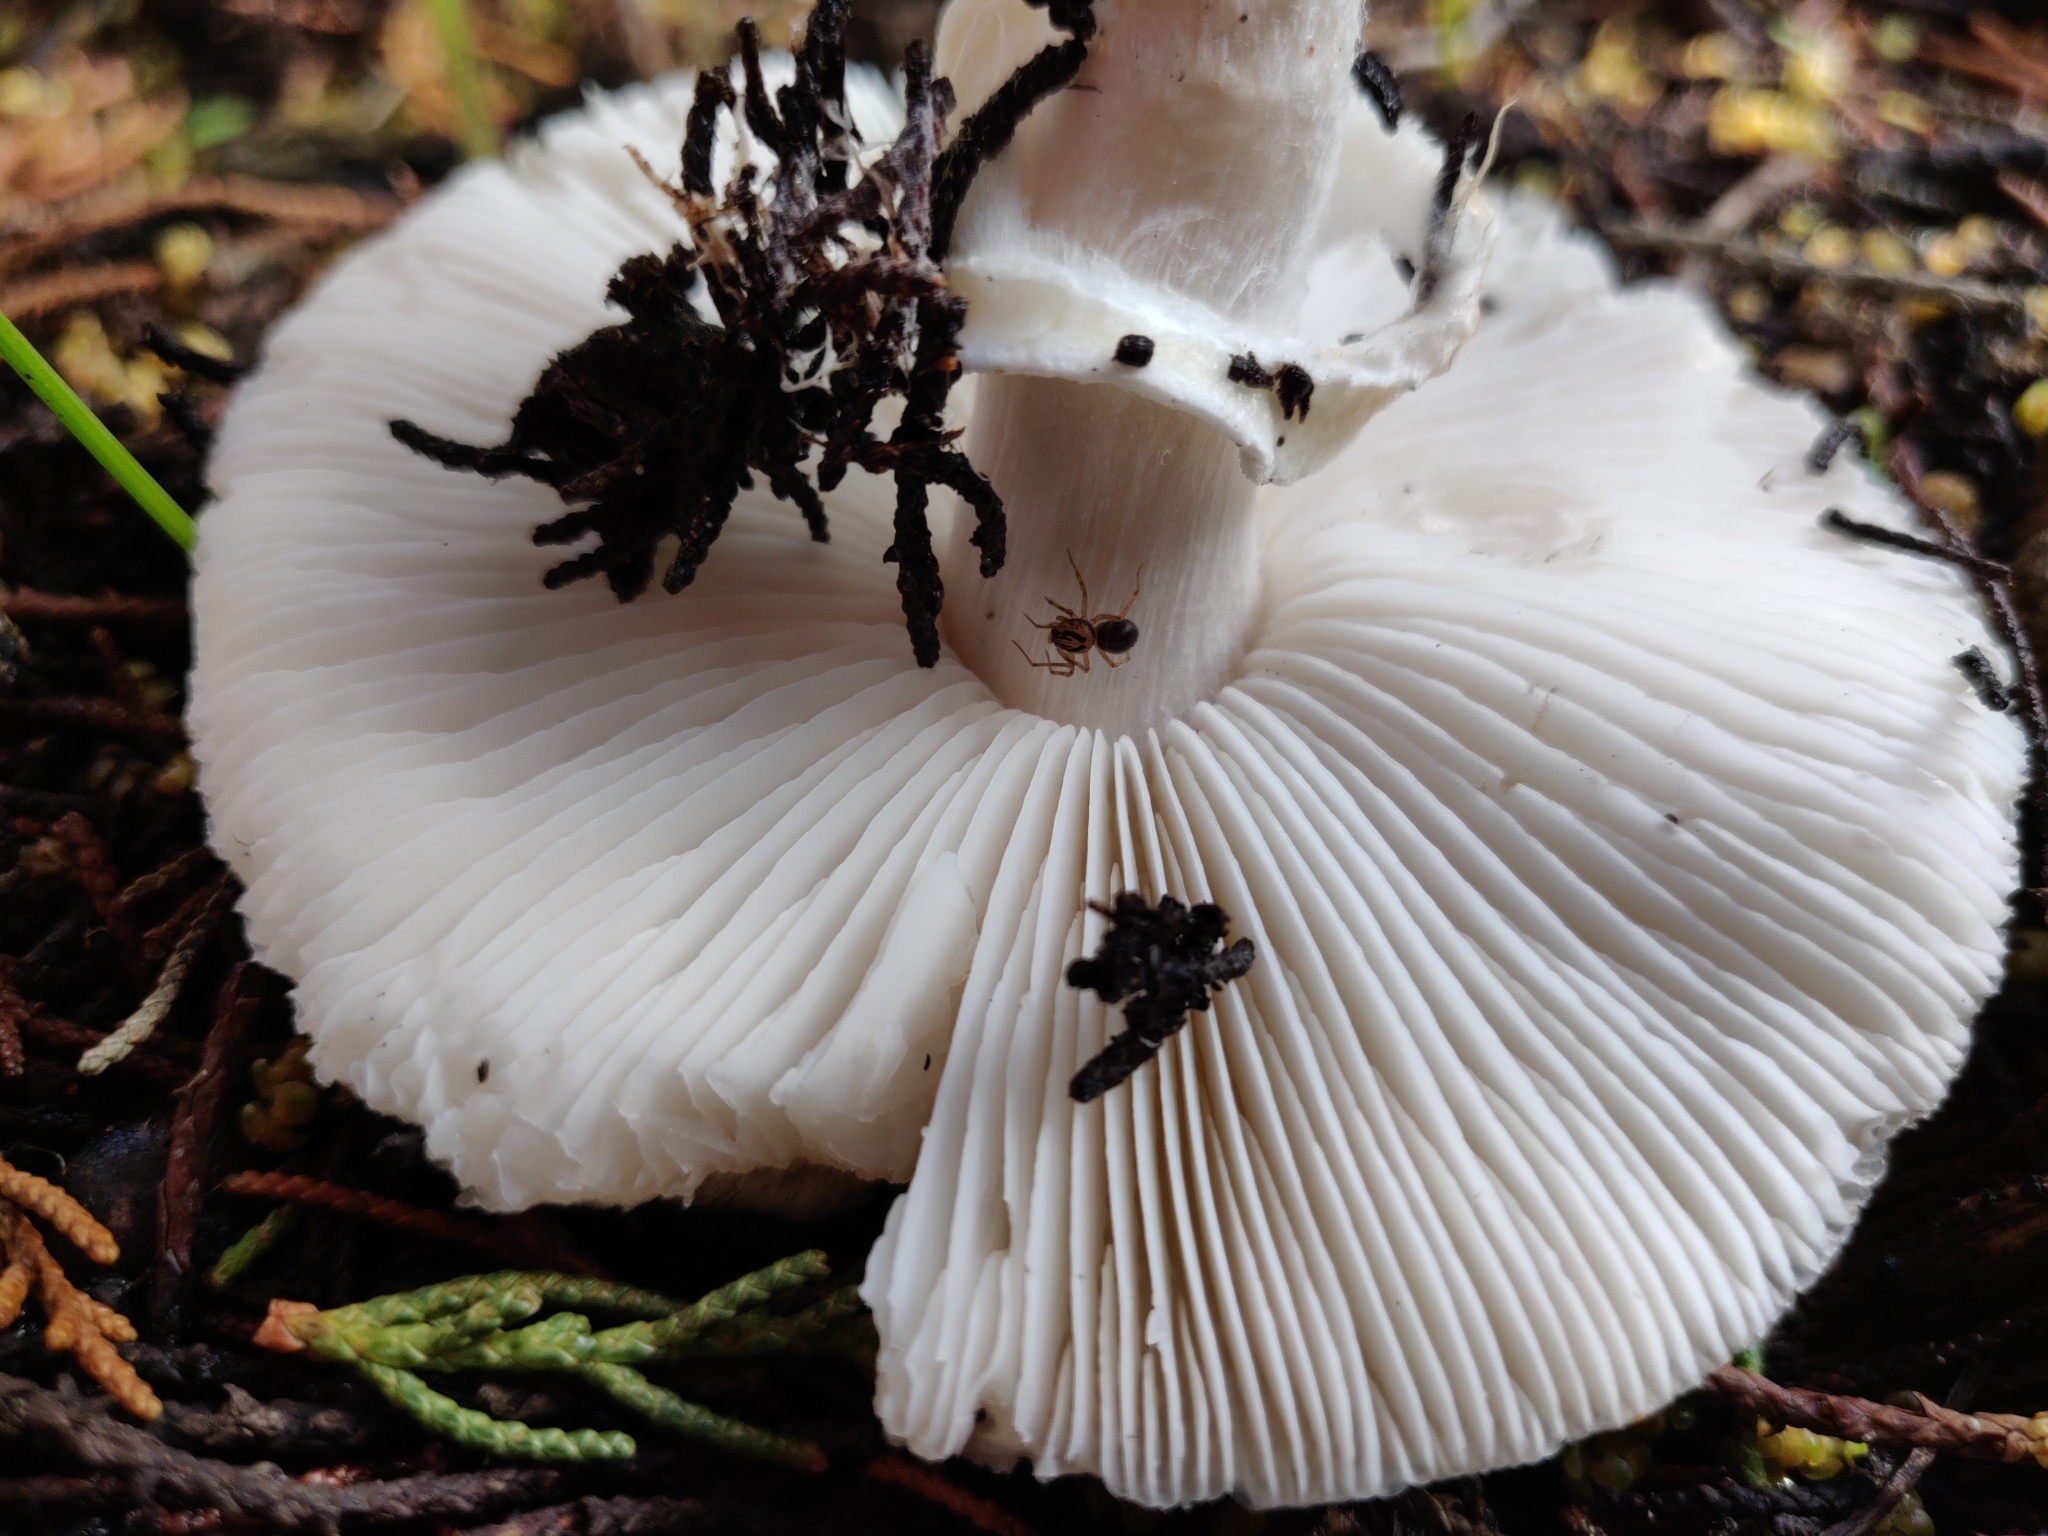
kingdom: Fungi
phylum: Basidiomycota
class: Agaricomycetes
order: Agaricales
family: Amanitaceae
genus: Limacella
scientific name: Limacella furnacea
